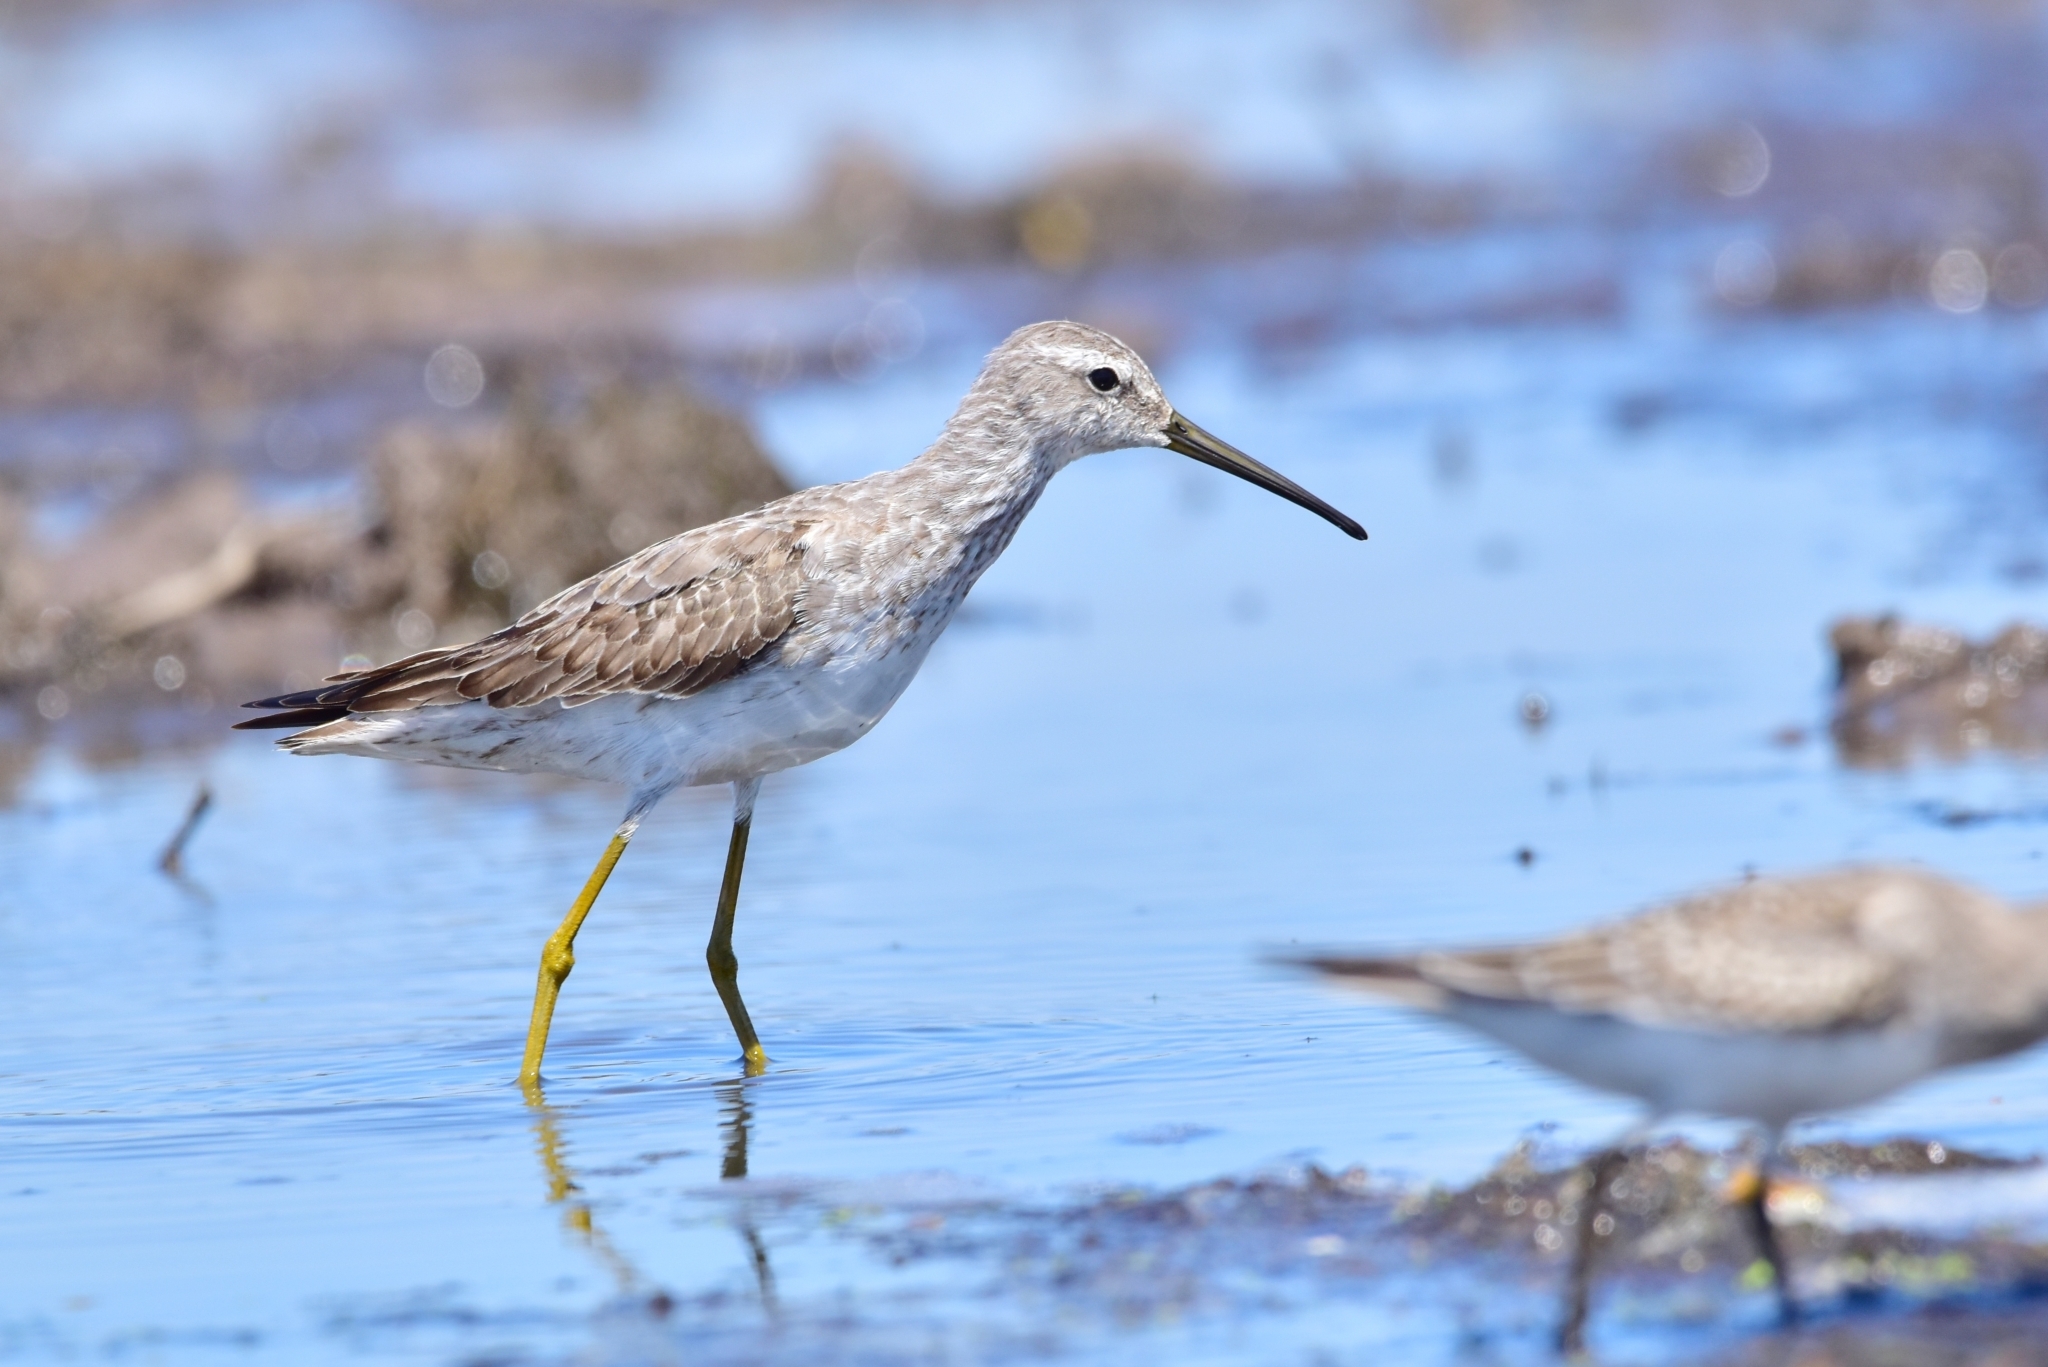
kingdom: Animalia
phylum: Chordata
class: Aves
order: Charadriiformes
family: Scolopacidae
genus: Calidris
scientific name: Calidris himantopus
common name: Stilt sandpiper
